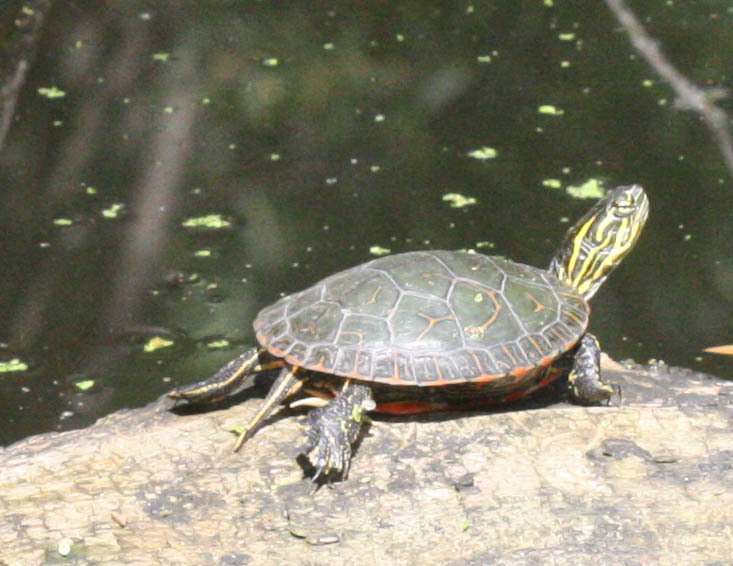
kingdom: Animalia
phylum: Chordata
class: Testudines
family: Emydidae
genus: Chrysemys
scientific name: Chrysemys picta
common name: Painted turtle
